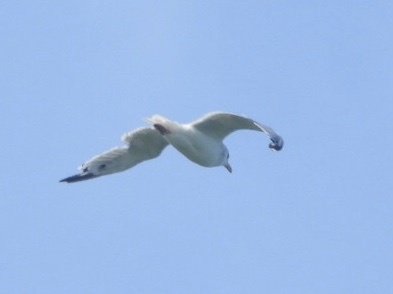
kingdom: Animalia
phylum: Chordata
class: Aves
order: Charadriiformes
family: Laridae
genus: Larus
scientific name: Larus delawarensis
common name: Ring-billed gull
